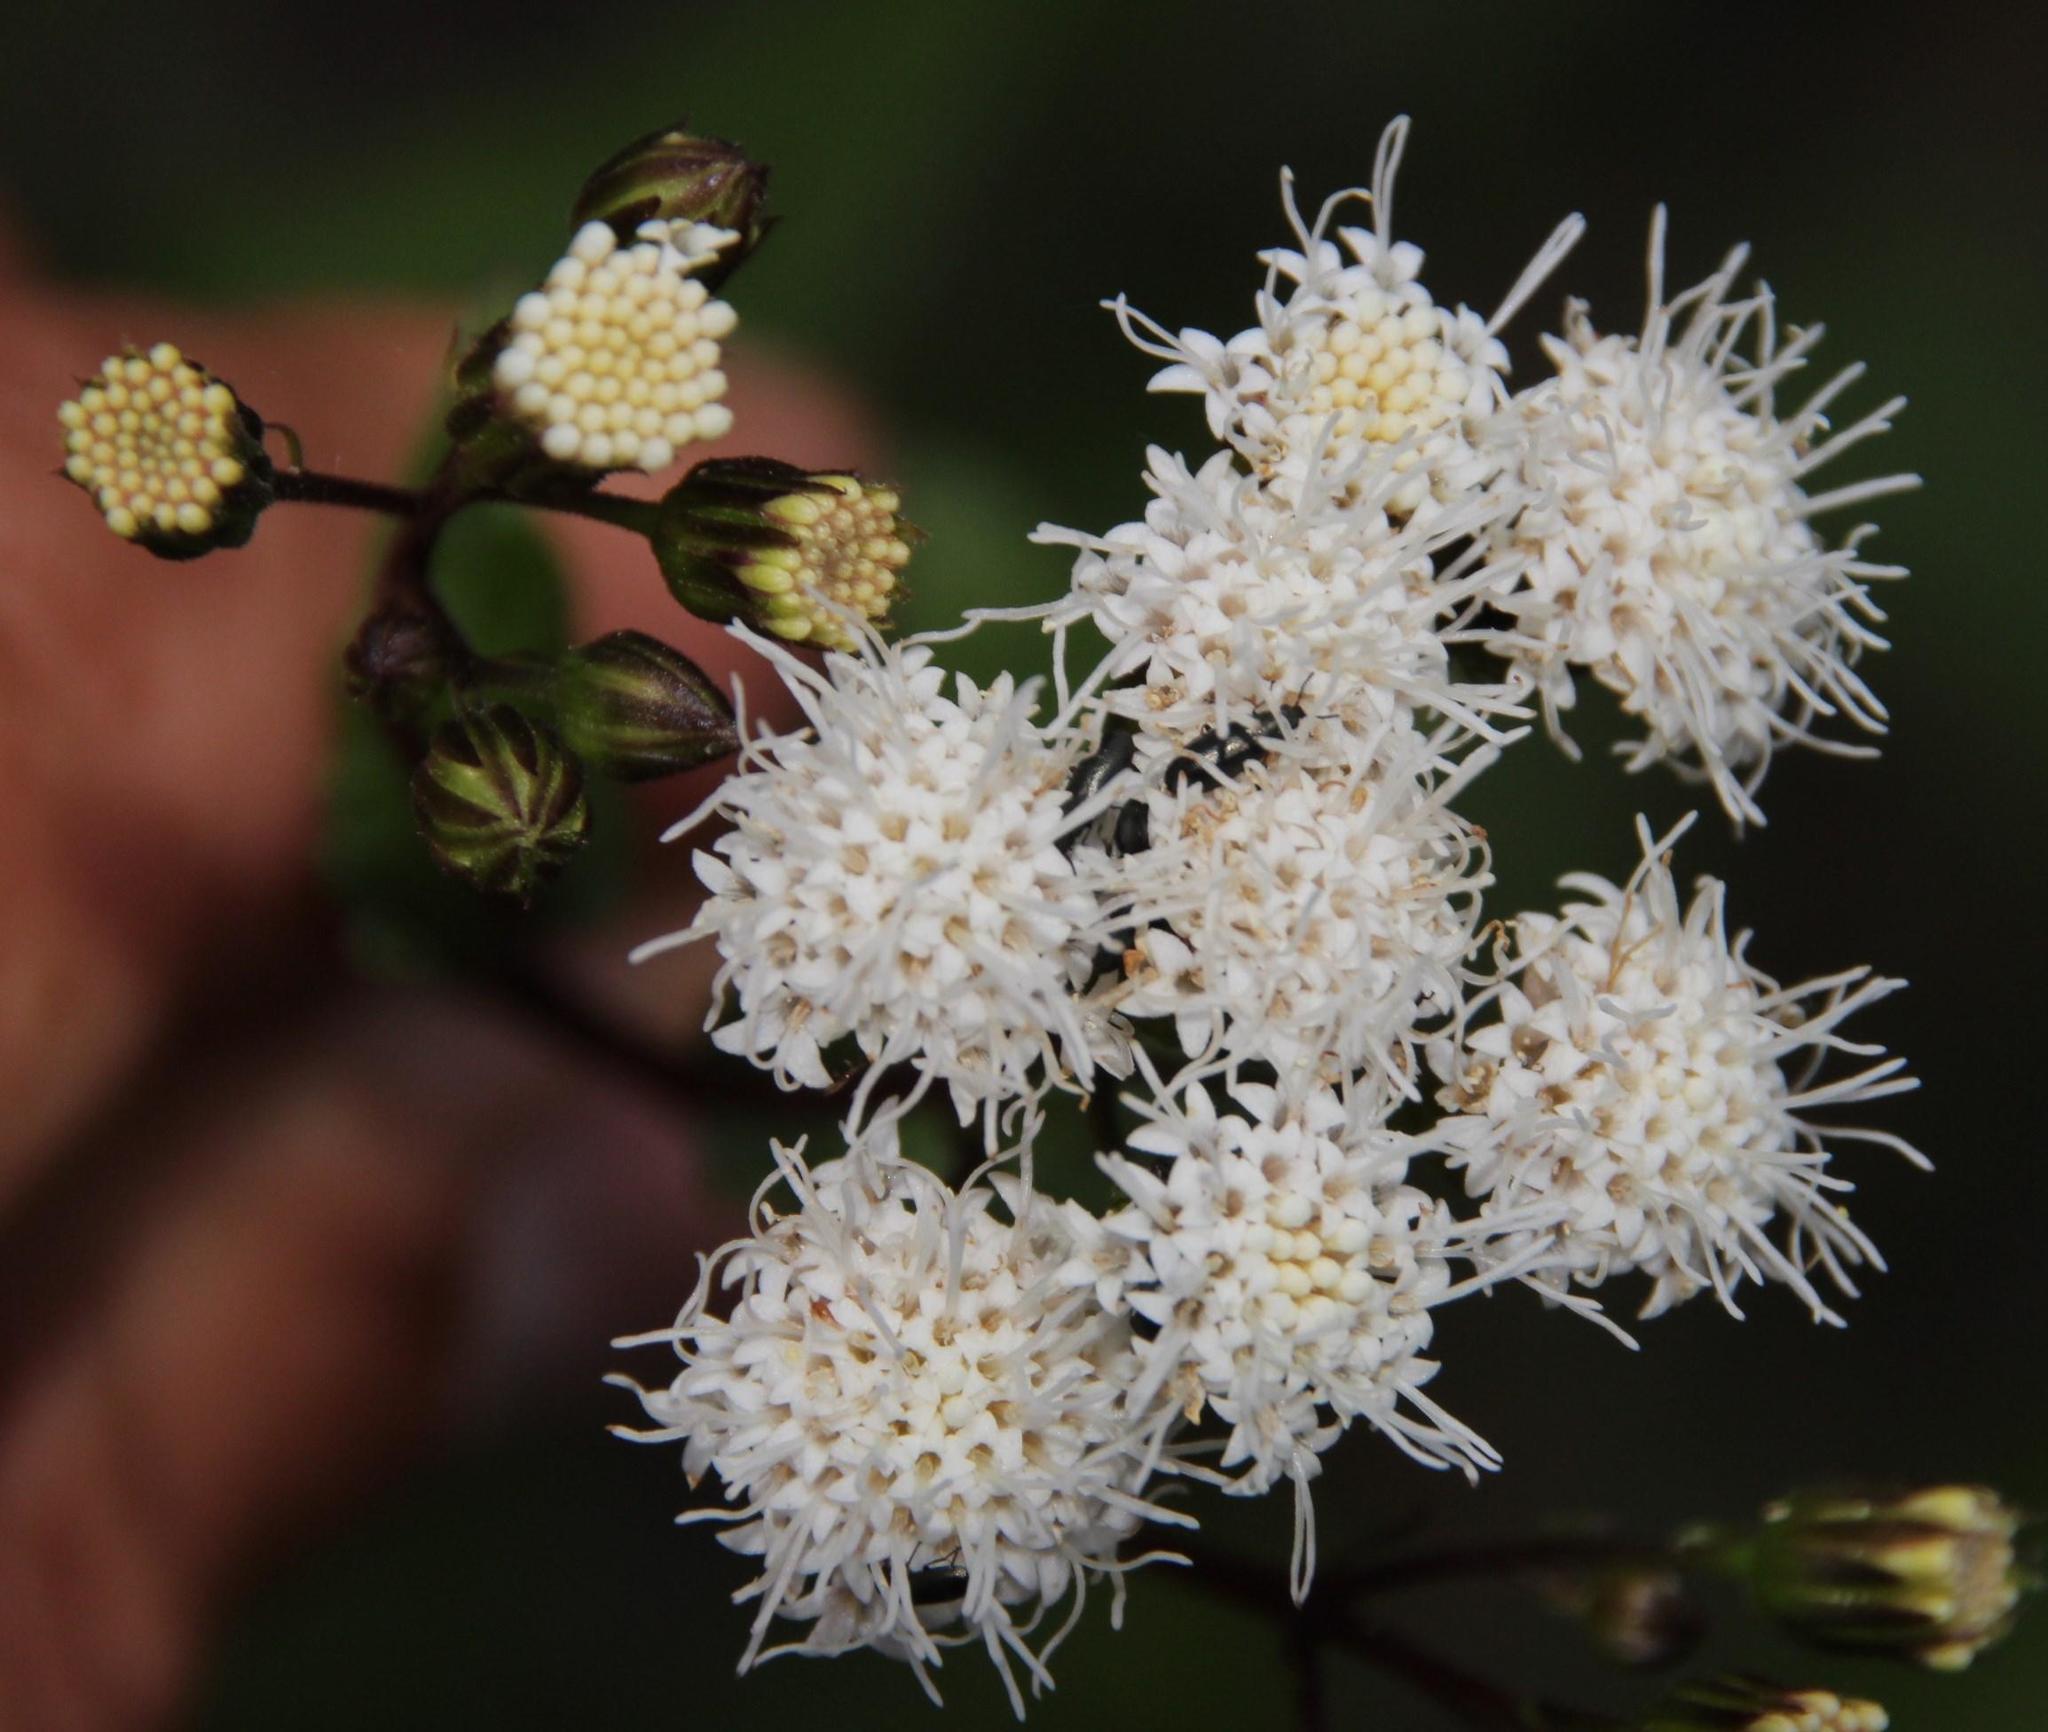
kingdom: Plantae
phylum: Tracheophyta
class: Magnoliopsida
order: Asterales
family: Asteraceae
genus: Ageratina
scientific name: Ageratina glechonophylla
